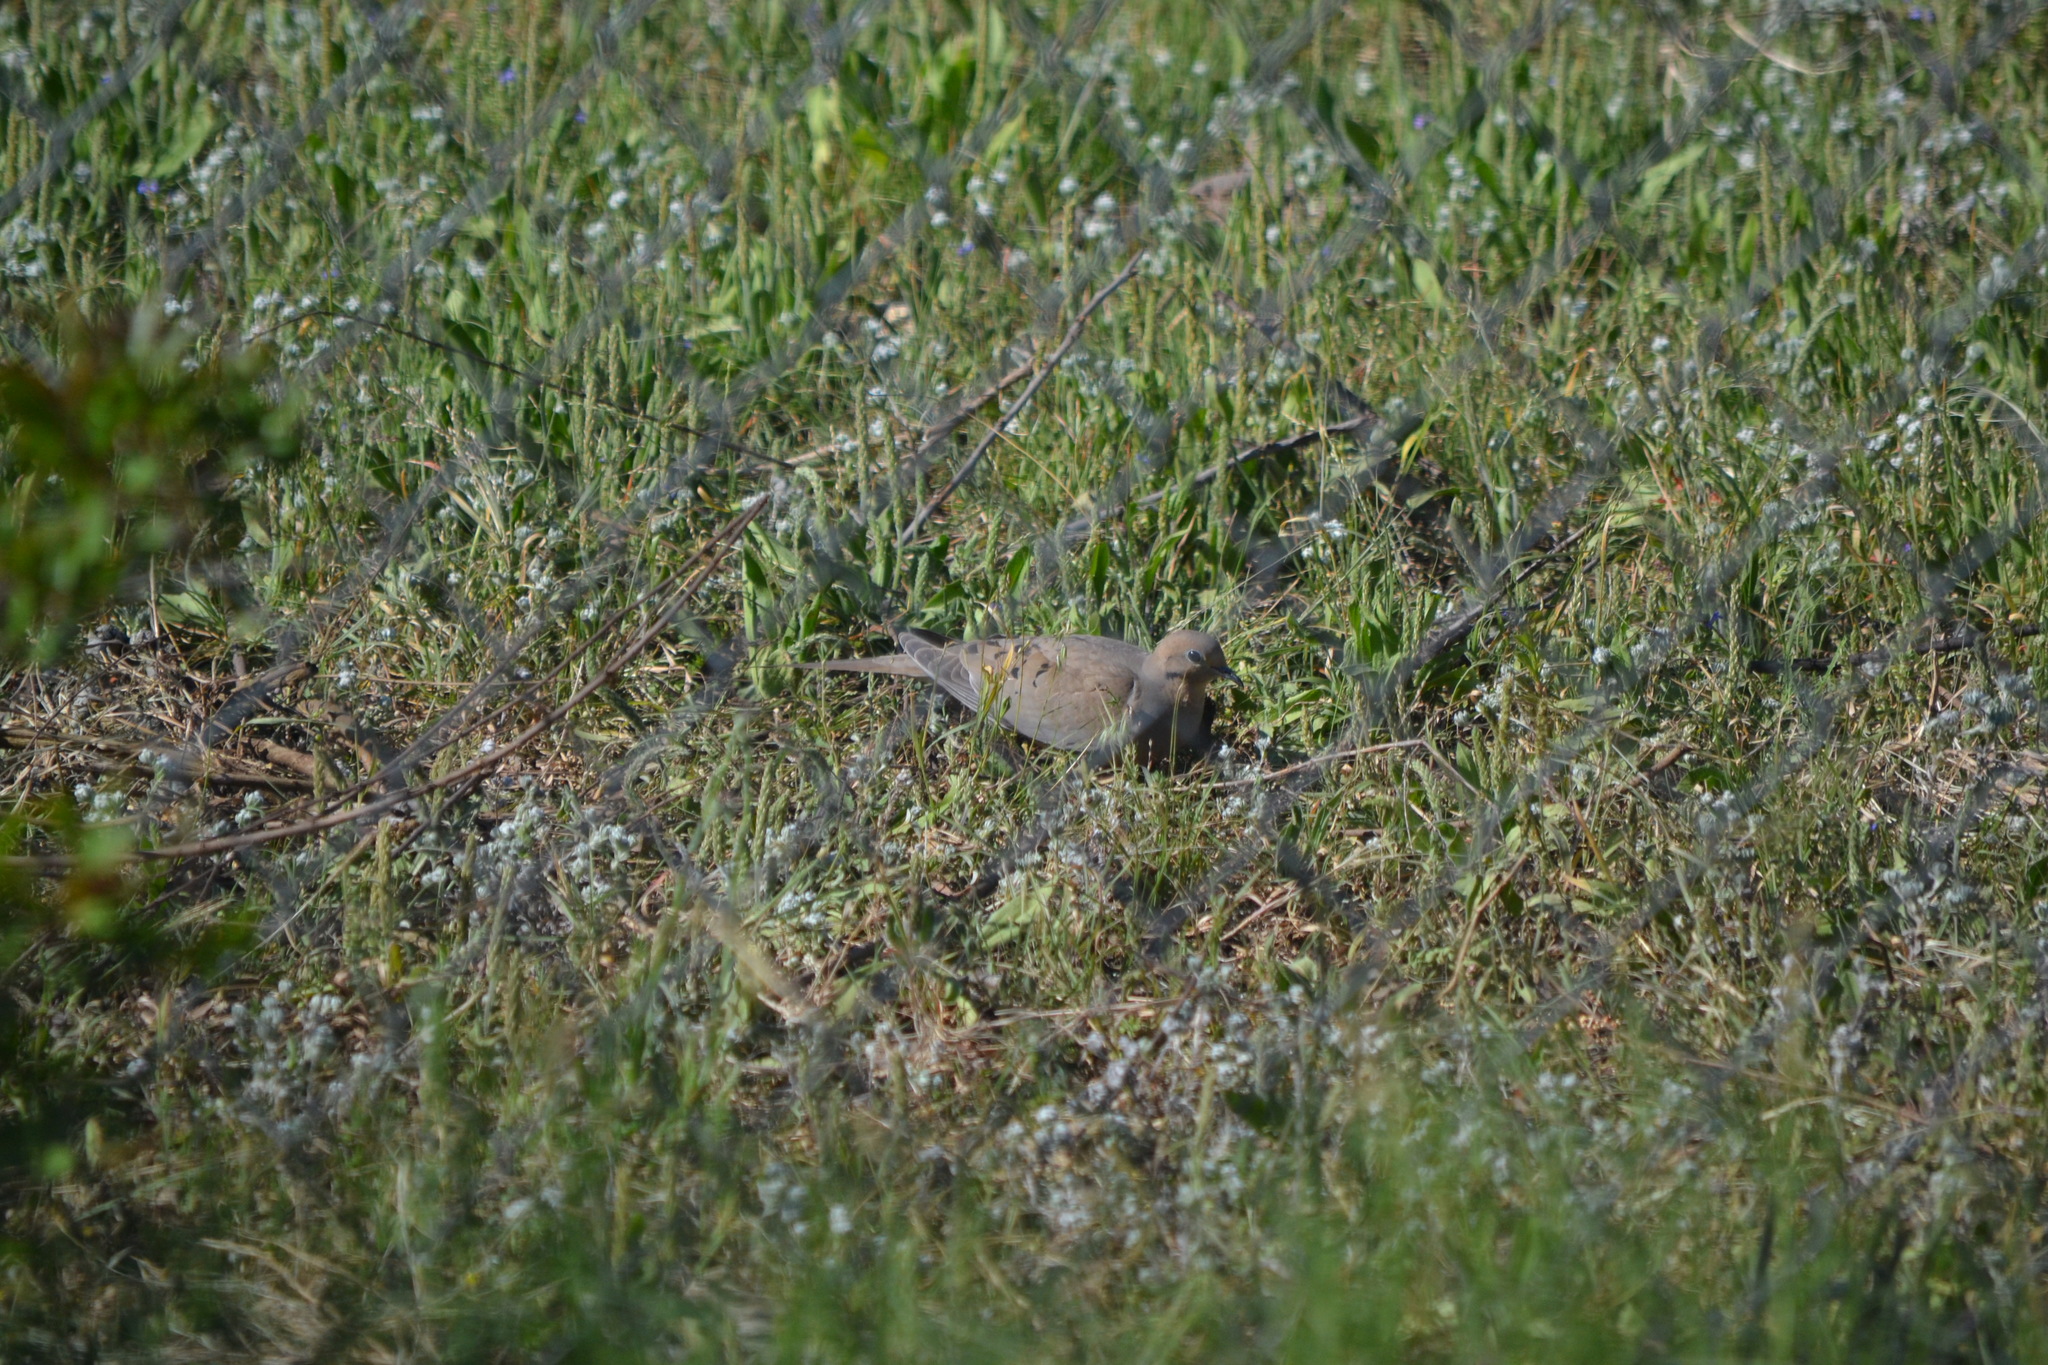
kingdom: Animalia
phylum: Chordata
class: Aves
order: Columbiformes
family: Columbidae
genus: Zenaida
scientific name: Zenaida macroura
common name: Mourning dove
